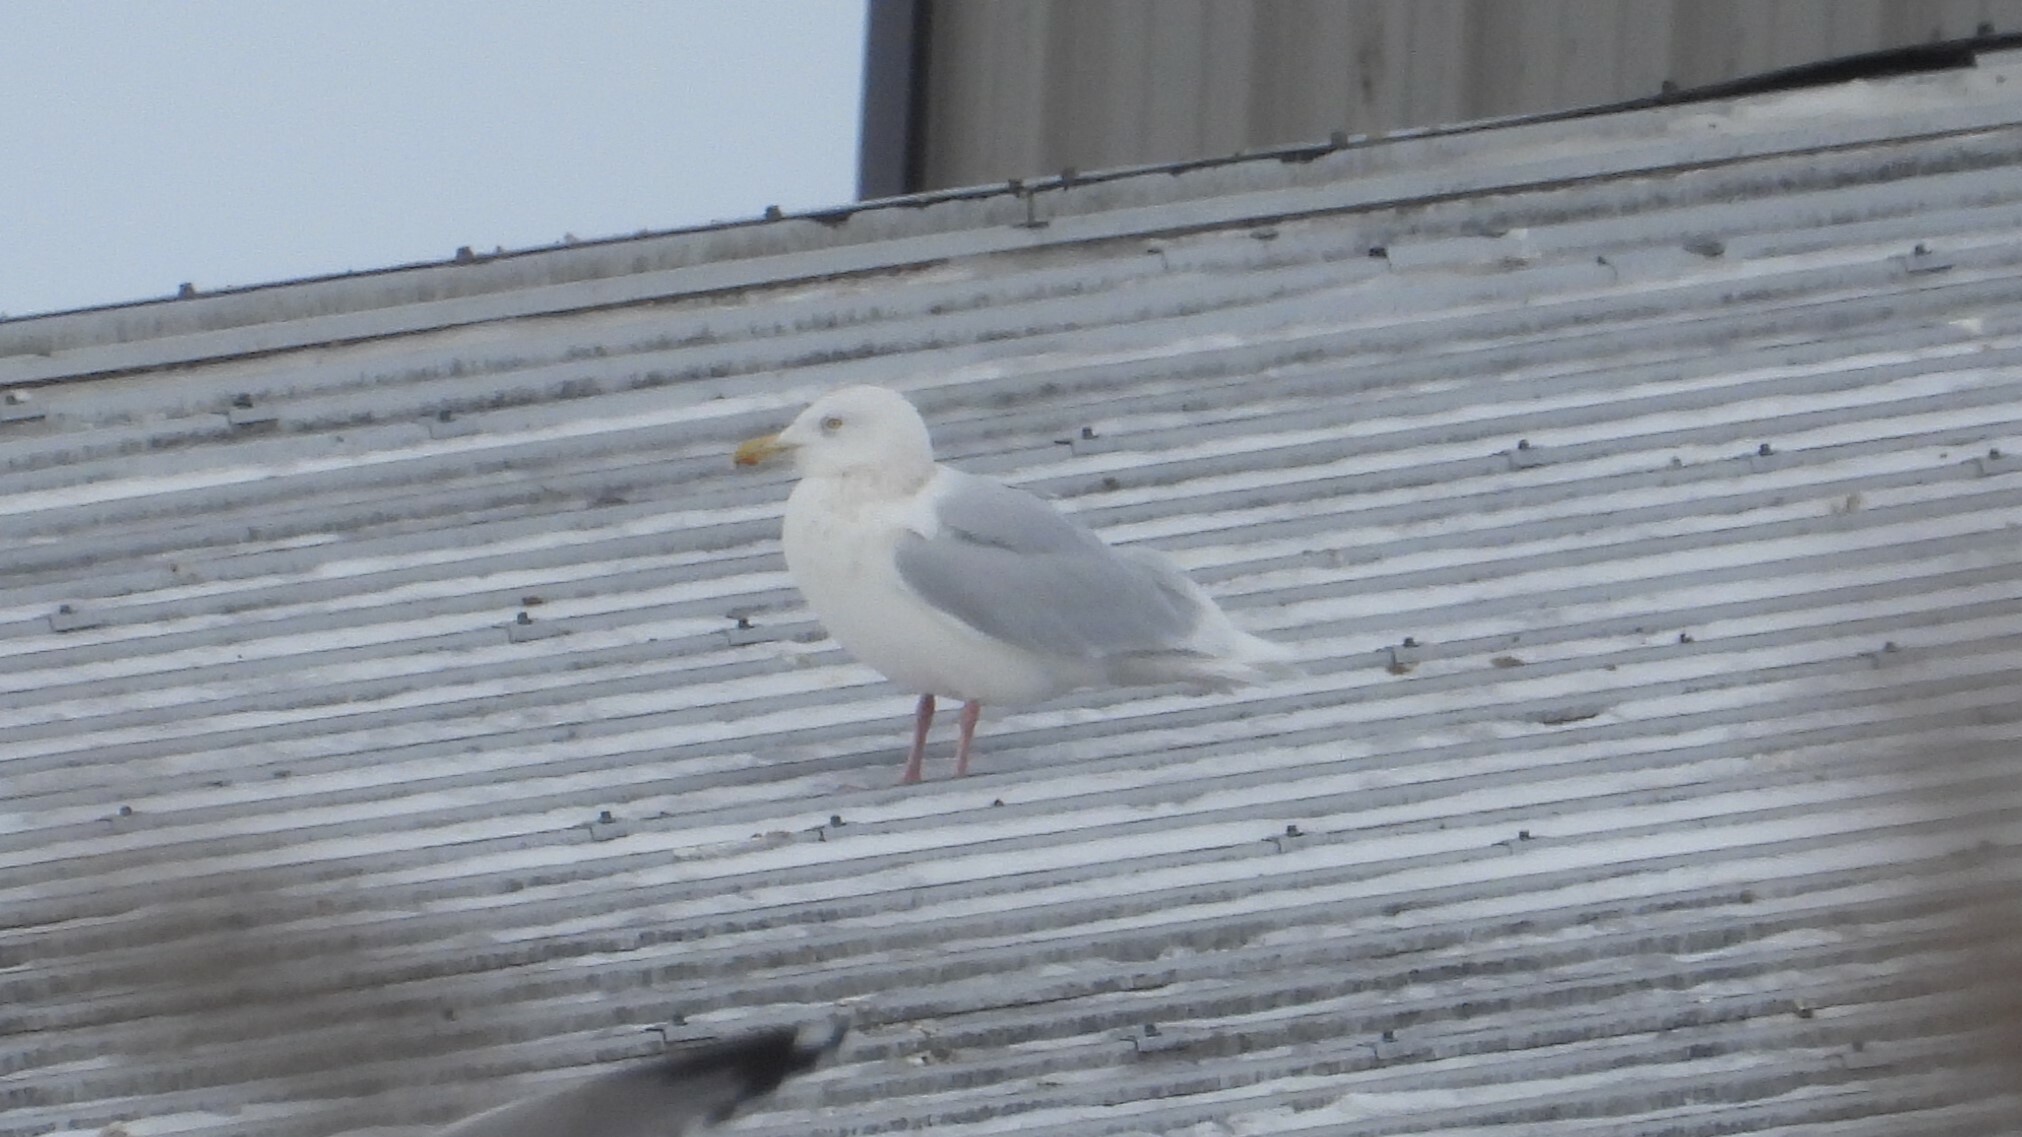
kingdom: Animalia
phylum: Chordata
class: Aves
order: Charadriiformes
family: Laridae
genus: Larus
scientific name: Larus hyperboreus
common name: Glaucous gull
